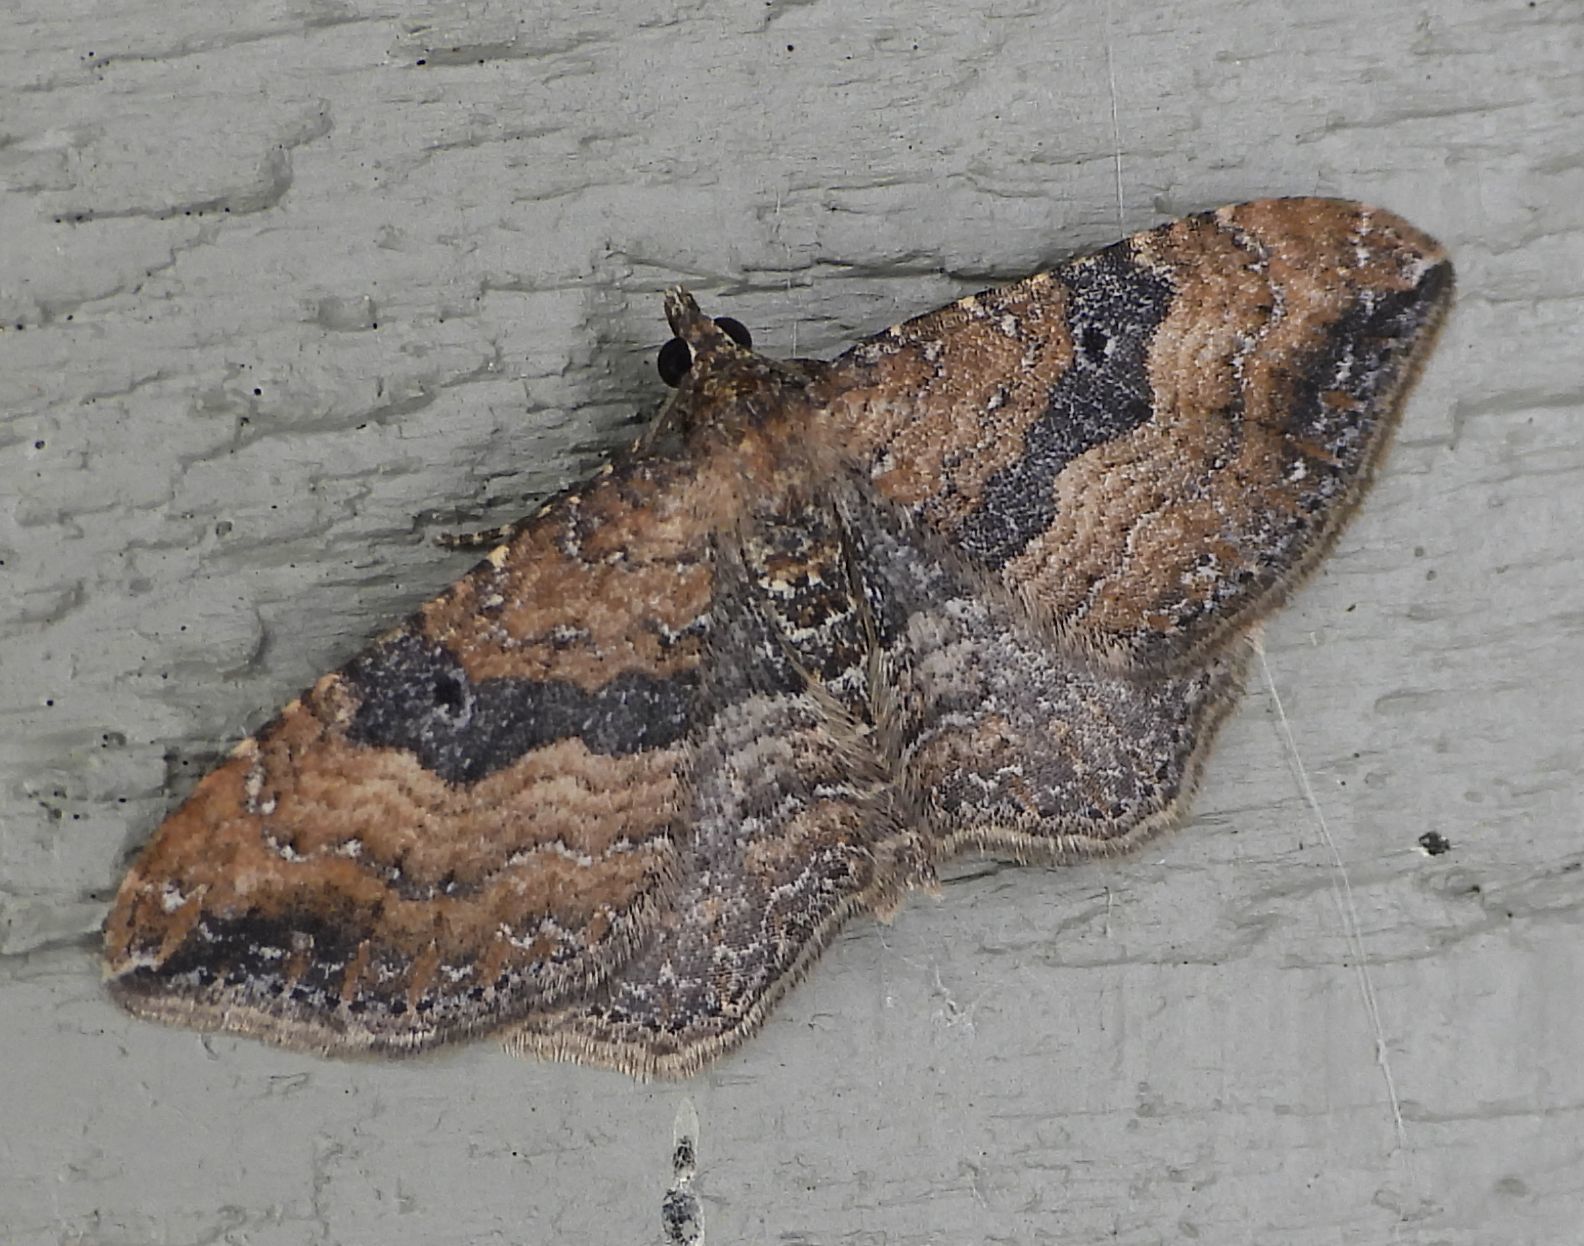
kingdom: Animalia
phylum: Arthropoda
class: Insecta
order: Lepidoptera
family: Geometridae
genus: Orthonama
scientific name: Orthonama obstipata
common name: The gem
